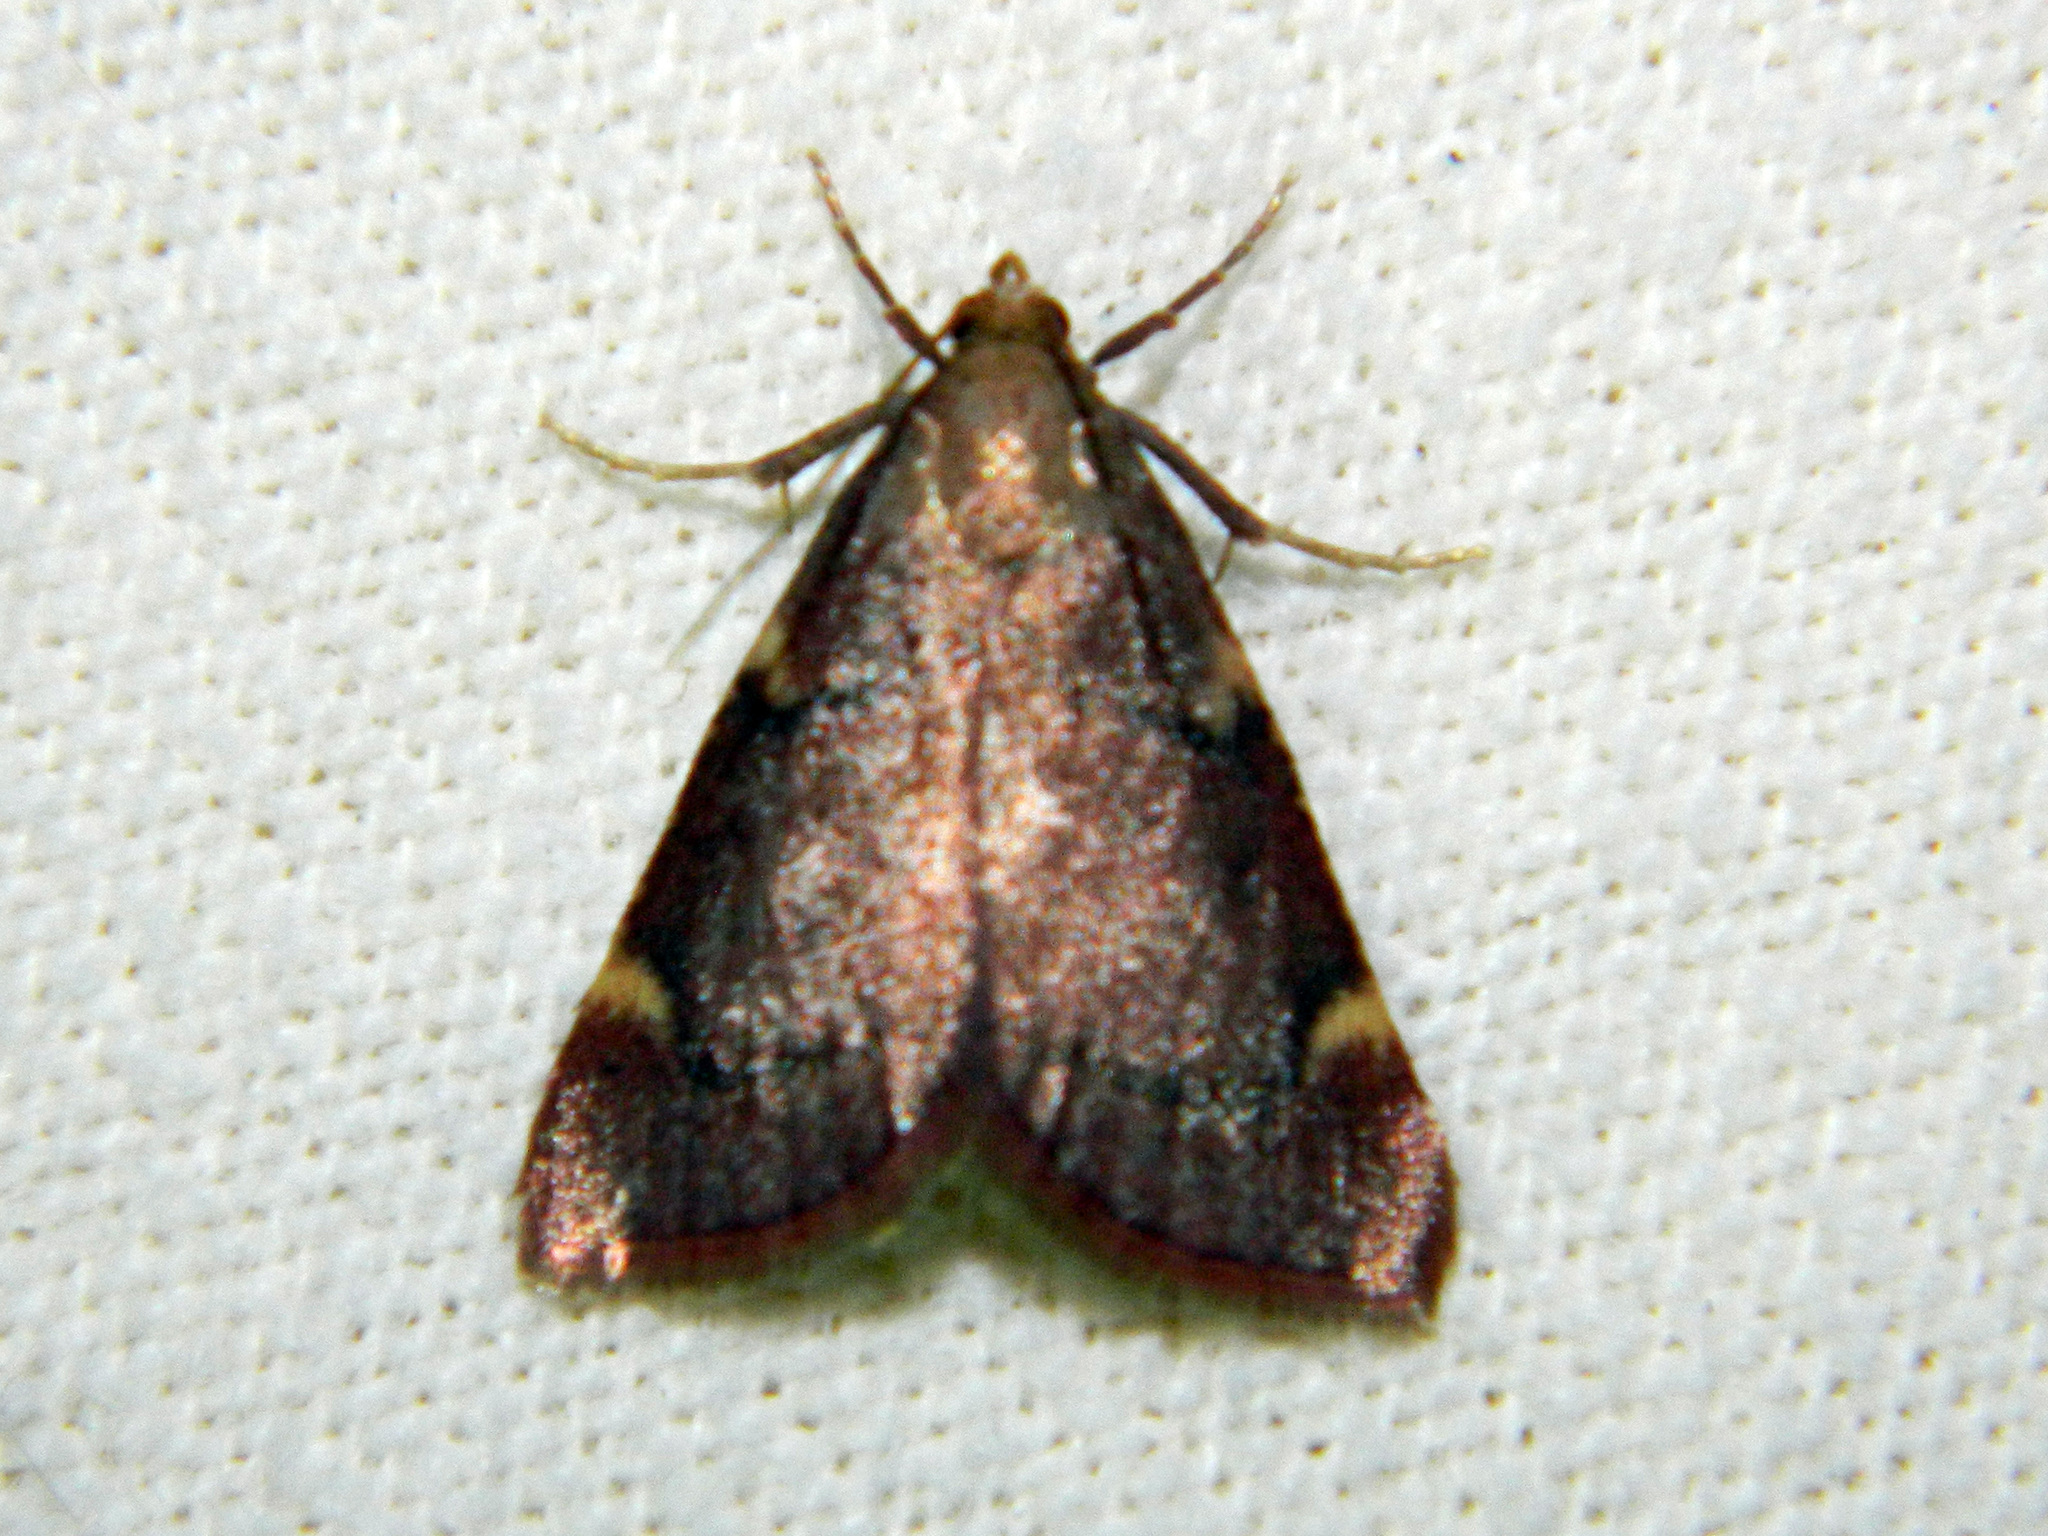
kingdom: Animalia
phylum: Arthropoda
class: Insecta
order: Lepidoptera
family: Pyralidae
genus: Hypsopygia
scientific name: Hypsopygia thymetusalis
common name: Spruce needleworm moth
